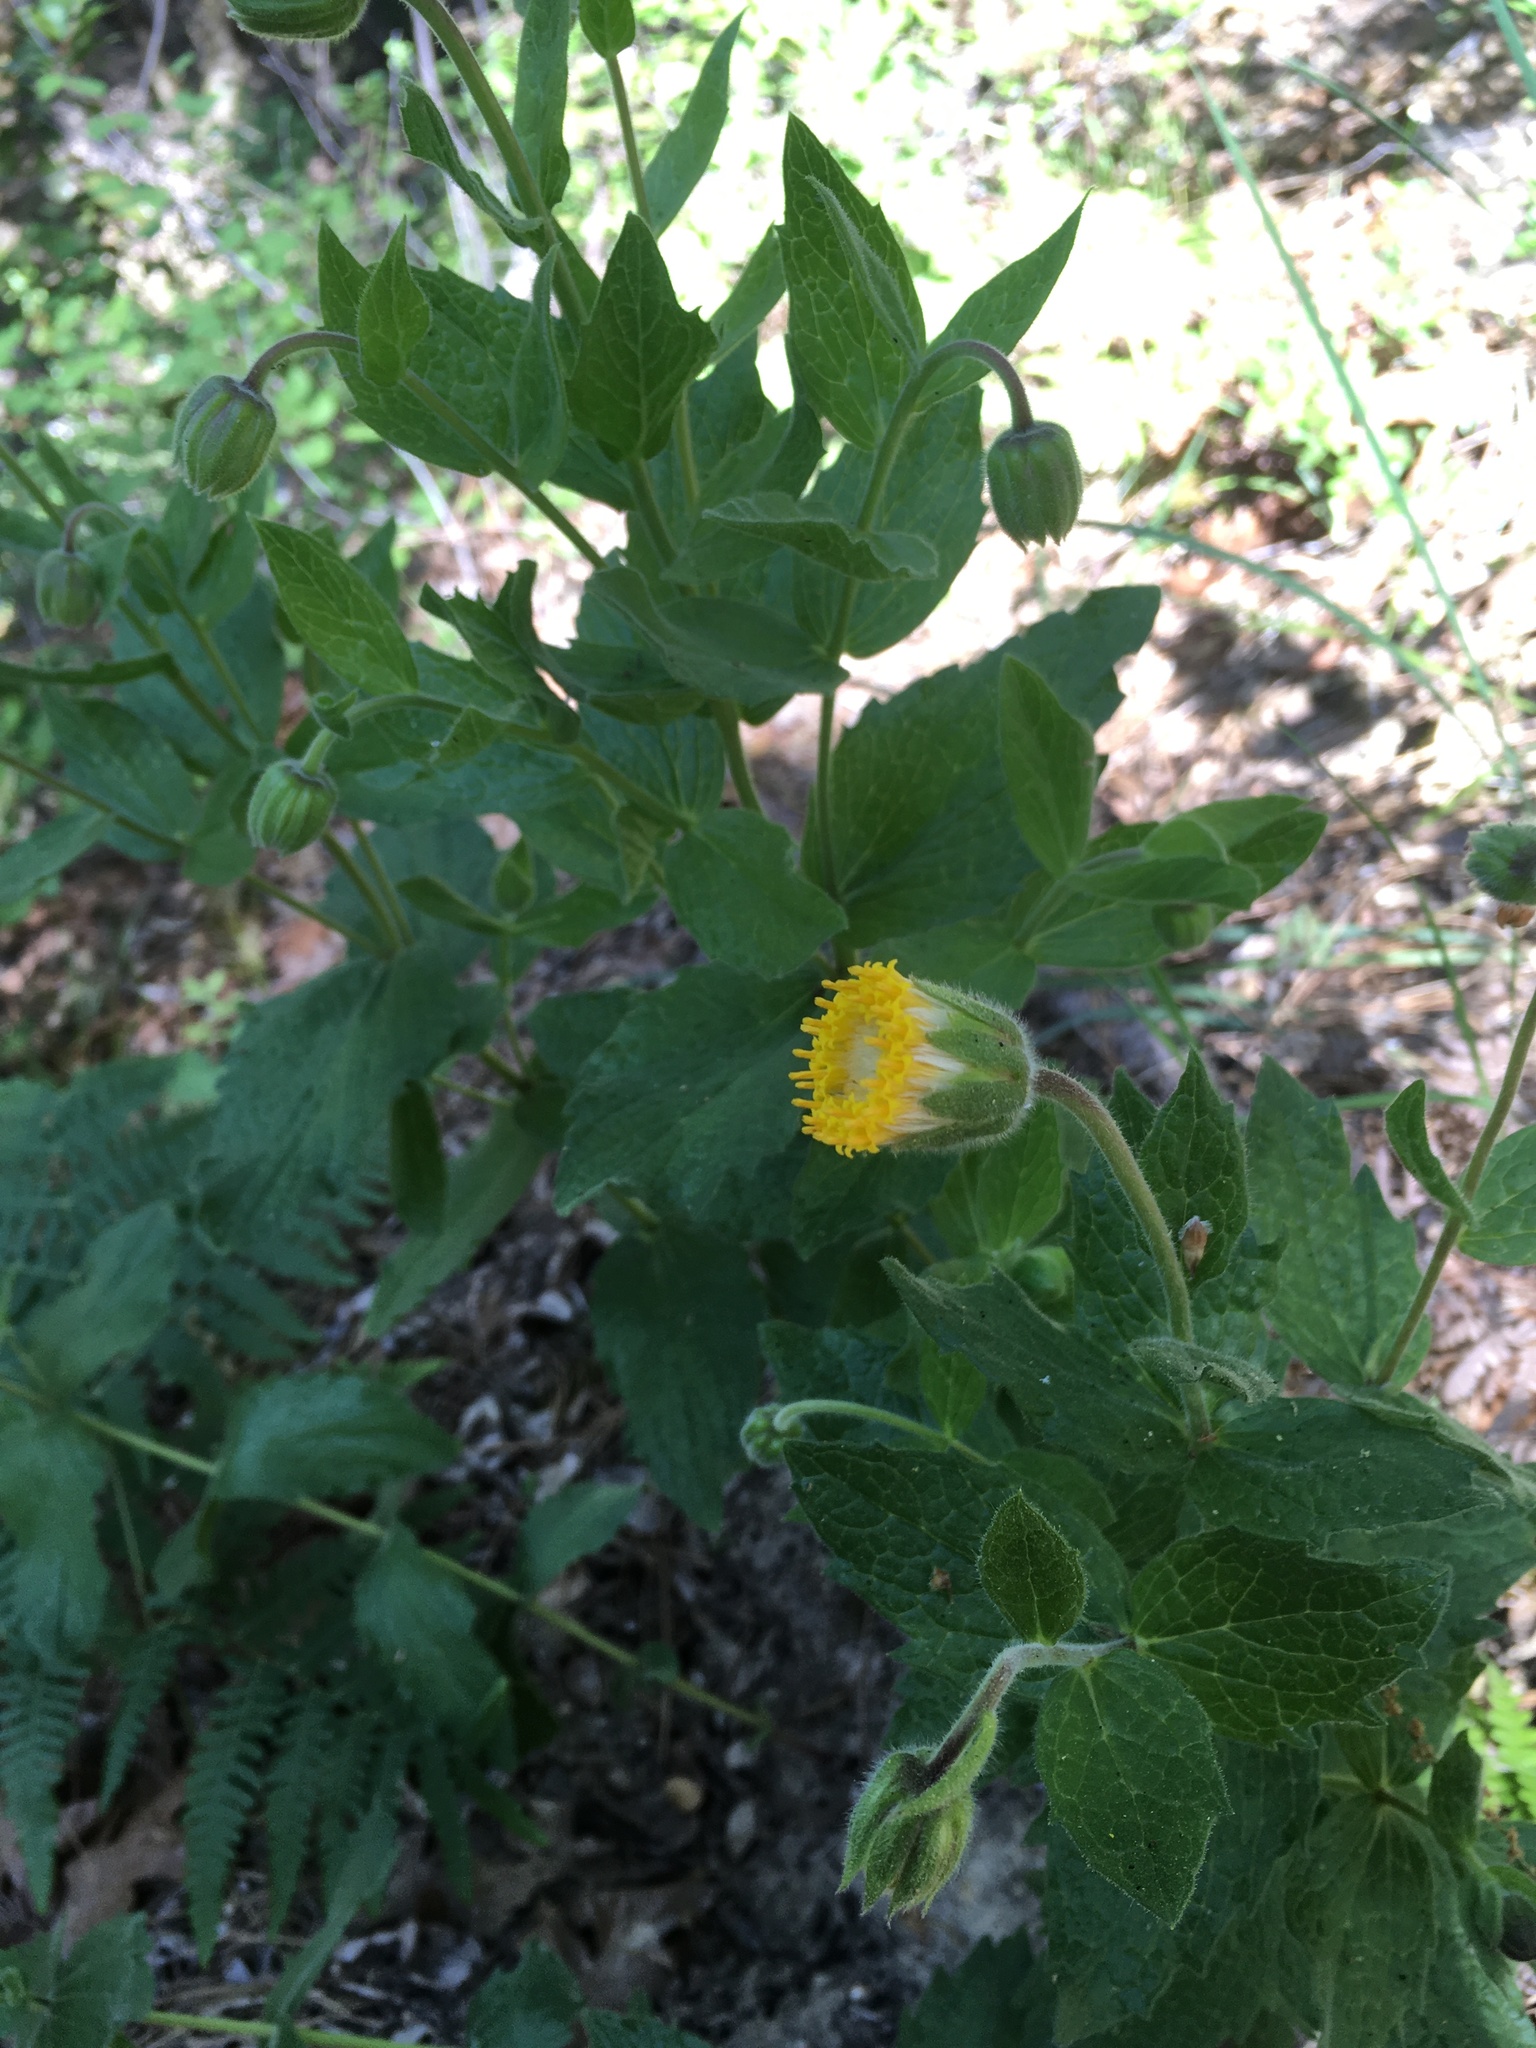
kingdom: Plantae
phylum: Tracheophyta
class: Magnoliopsida
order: Asterales
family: Asteraceae
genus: Arnica
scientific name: Arnica venosa
